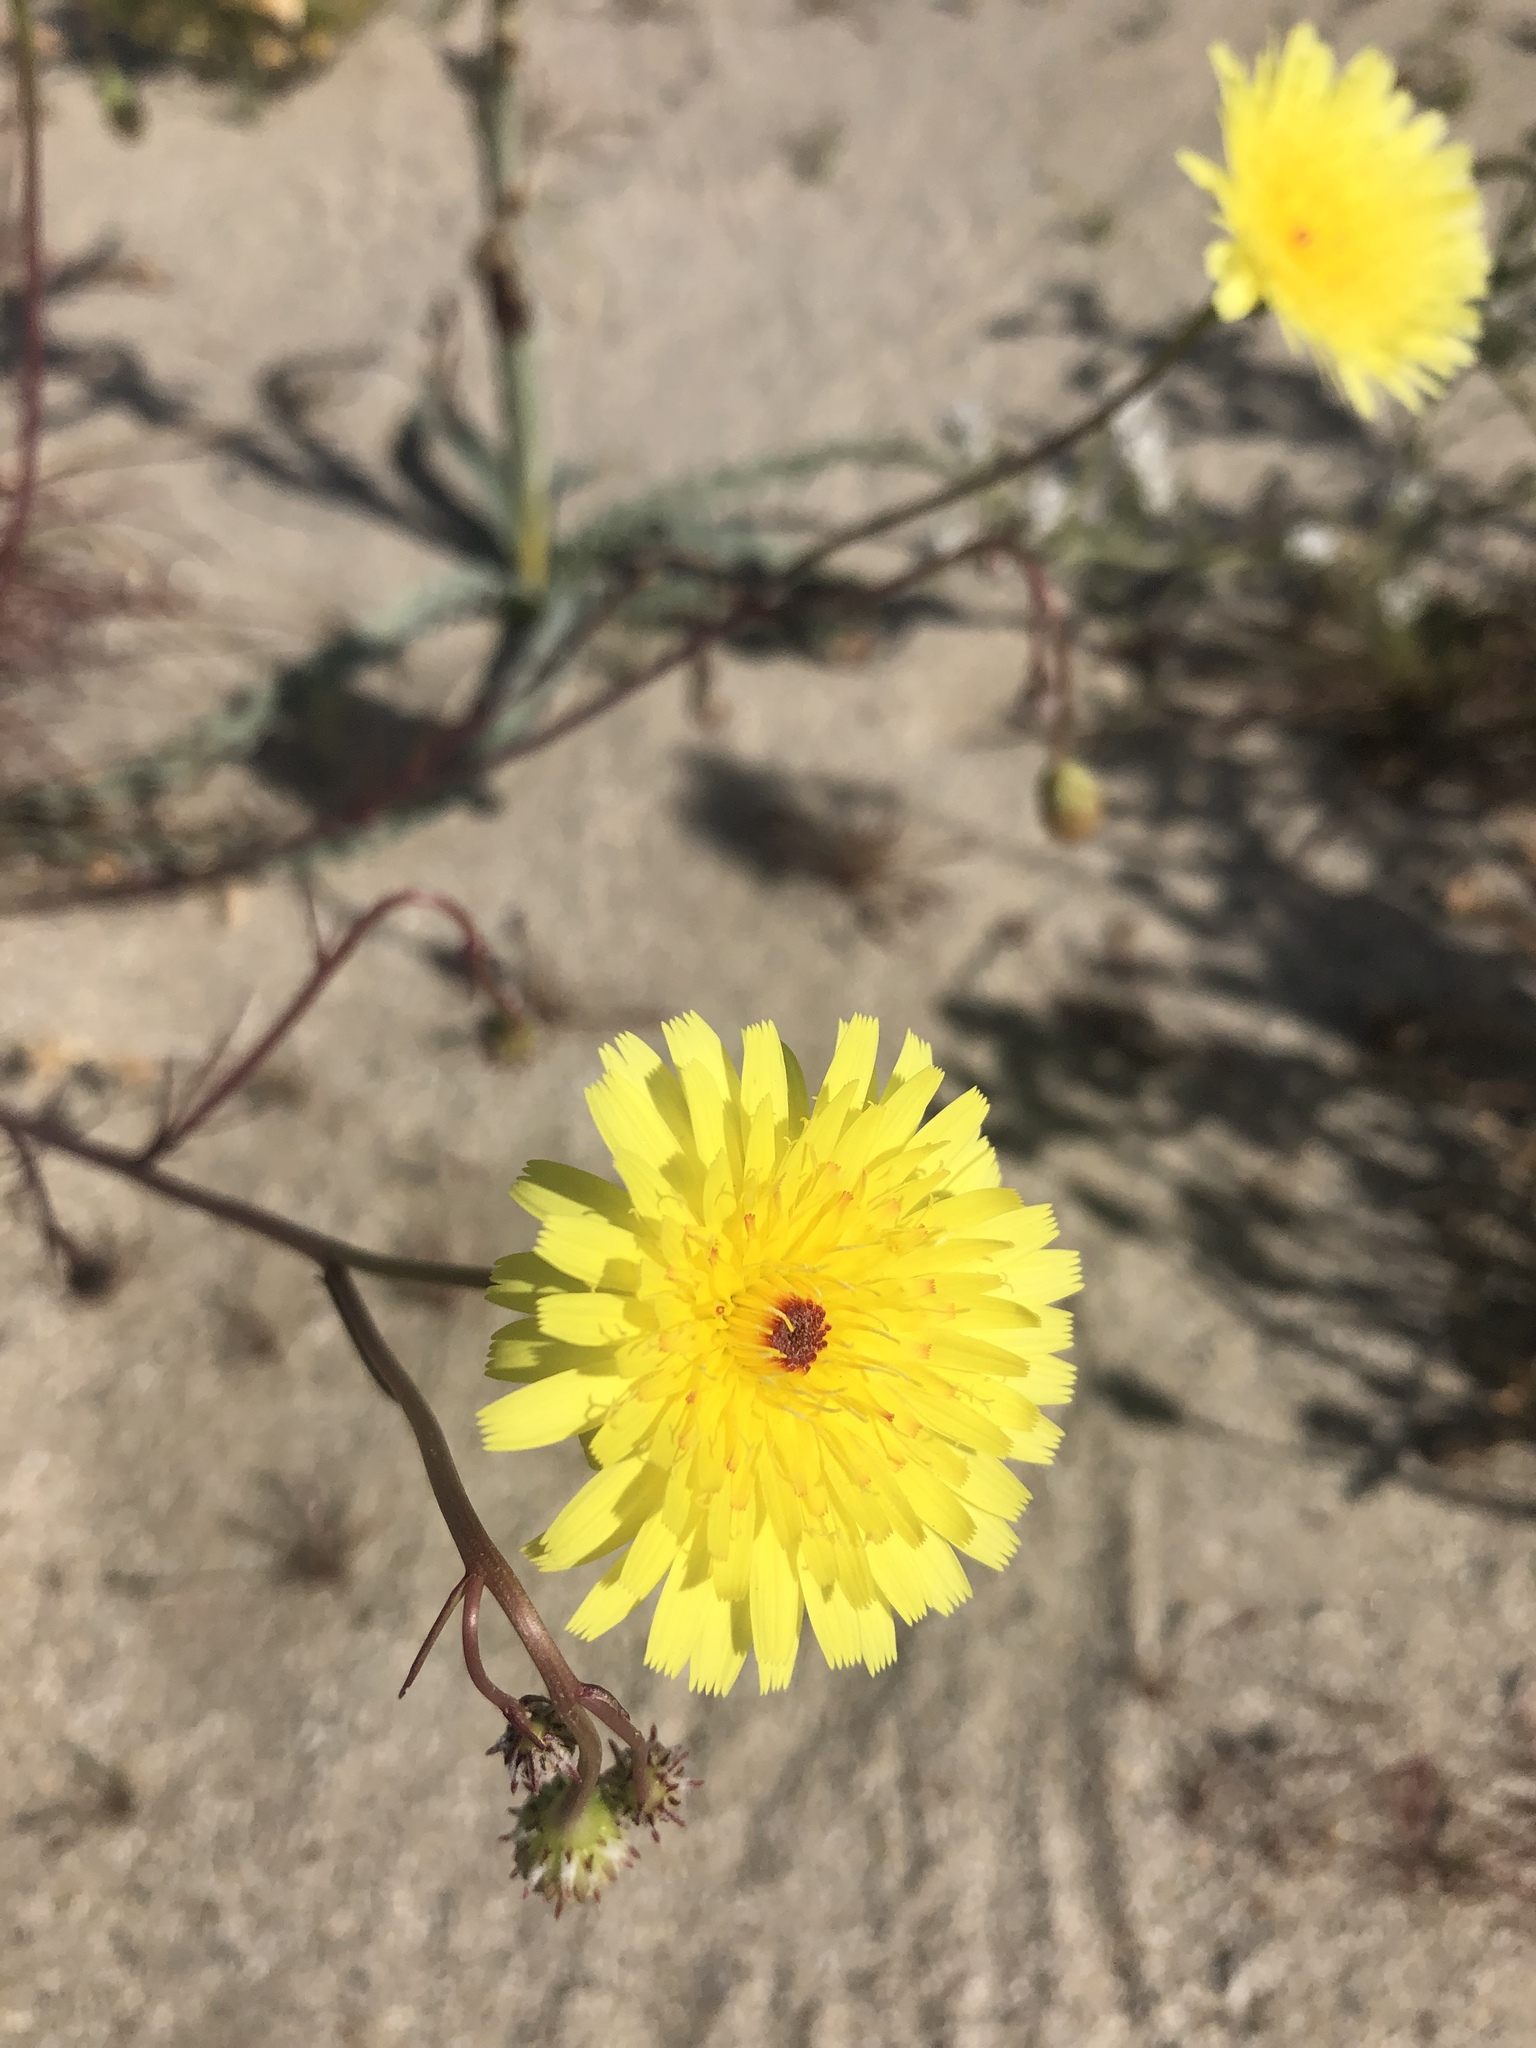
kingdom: Plantae
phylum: Tracheophyta
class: Magnoliopsida
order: Asterales
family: Asteraceae
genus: Malacothrix
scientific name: Malacothrix glabrata
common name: Smooth desert-dandelion
